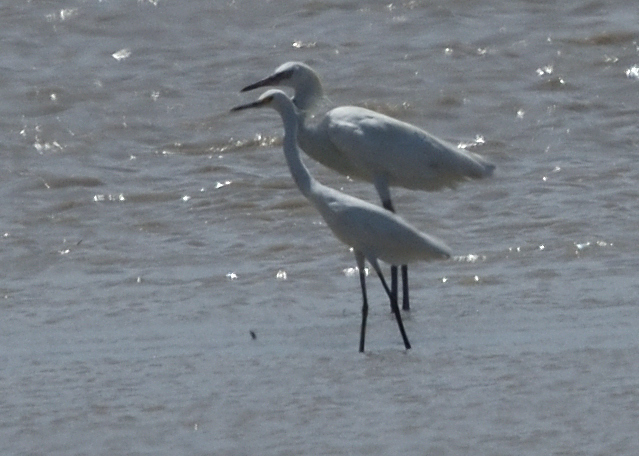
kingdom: Animalia
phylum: Chordata
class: Aves
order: Pelecaniformes
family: Ardeidae
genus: Egretta
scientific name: Egretta thula
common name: Snowy egret
